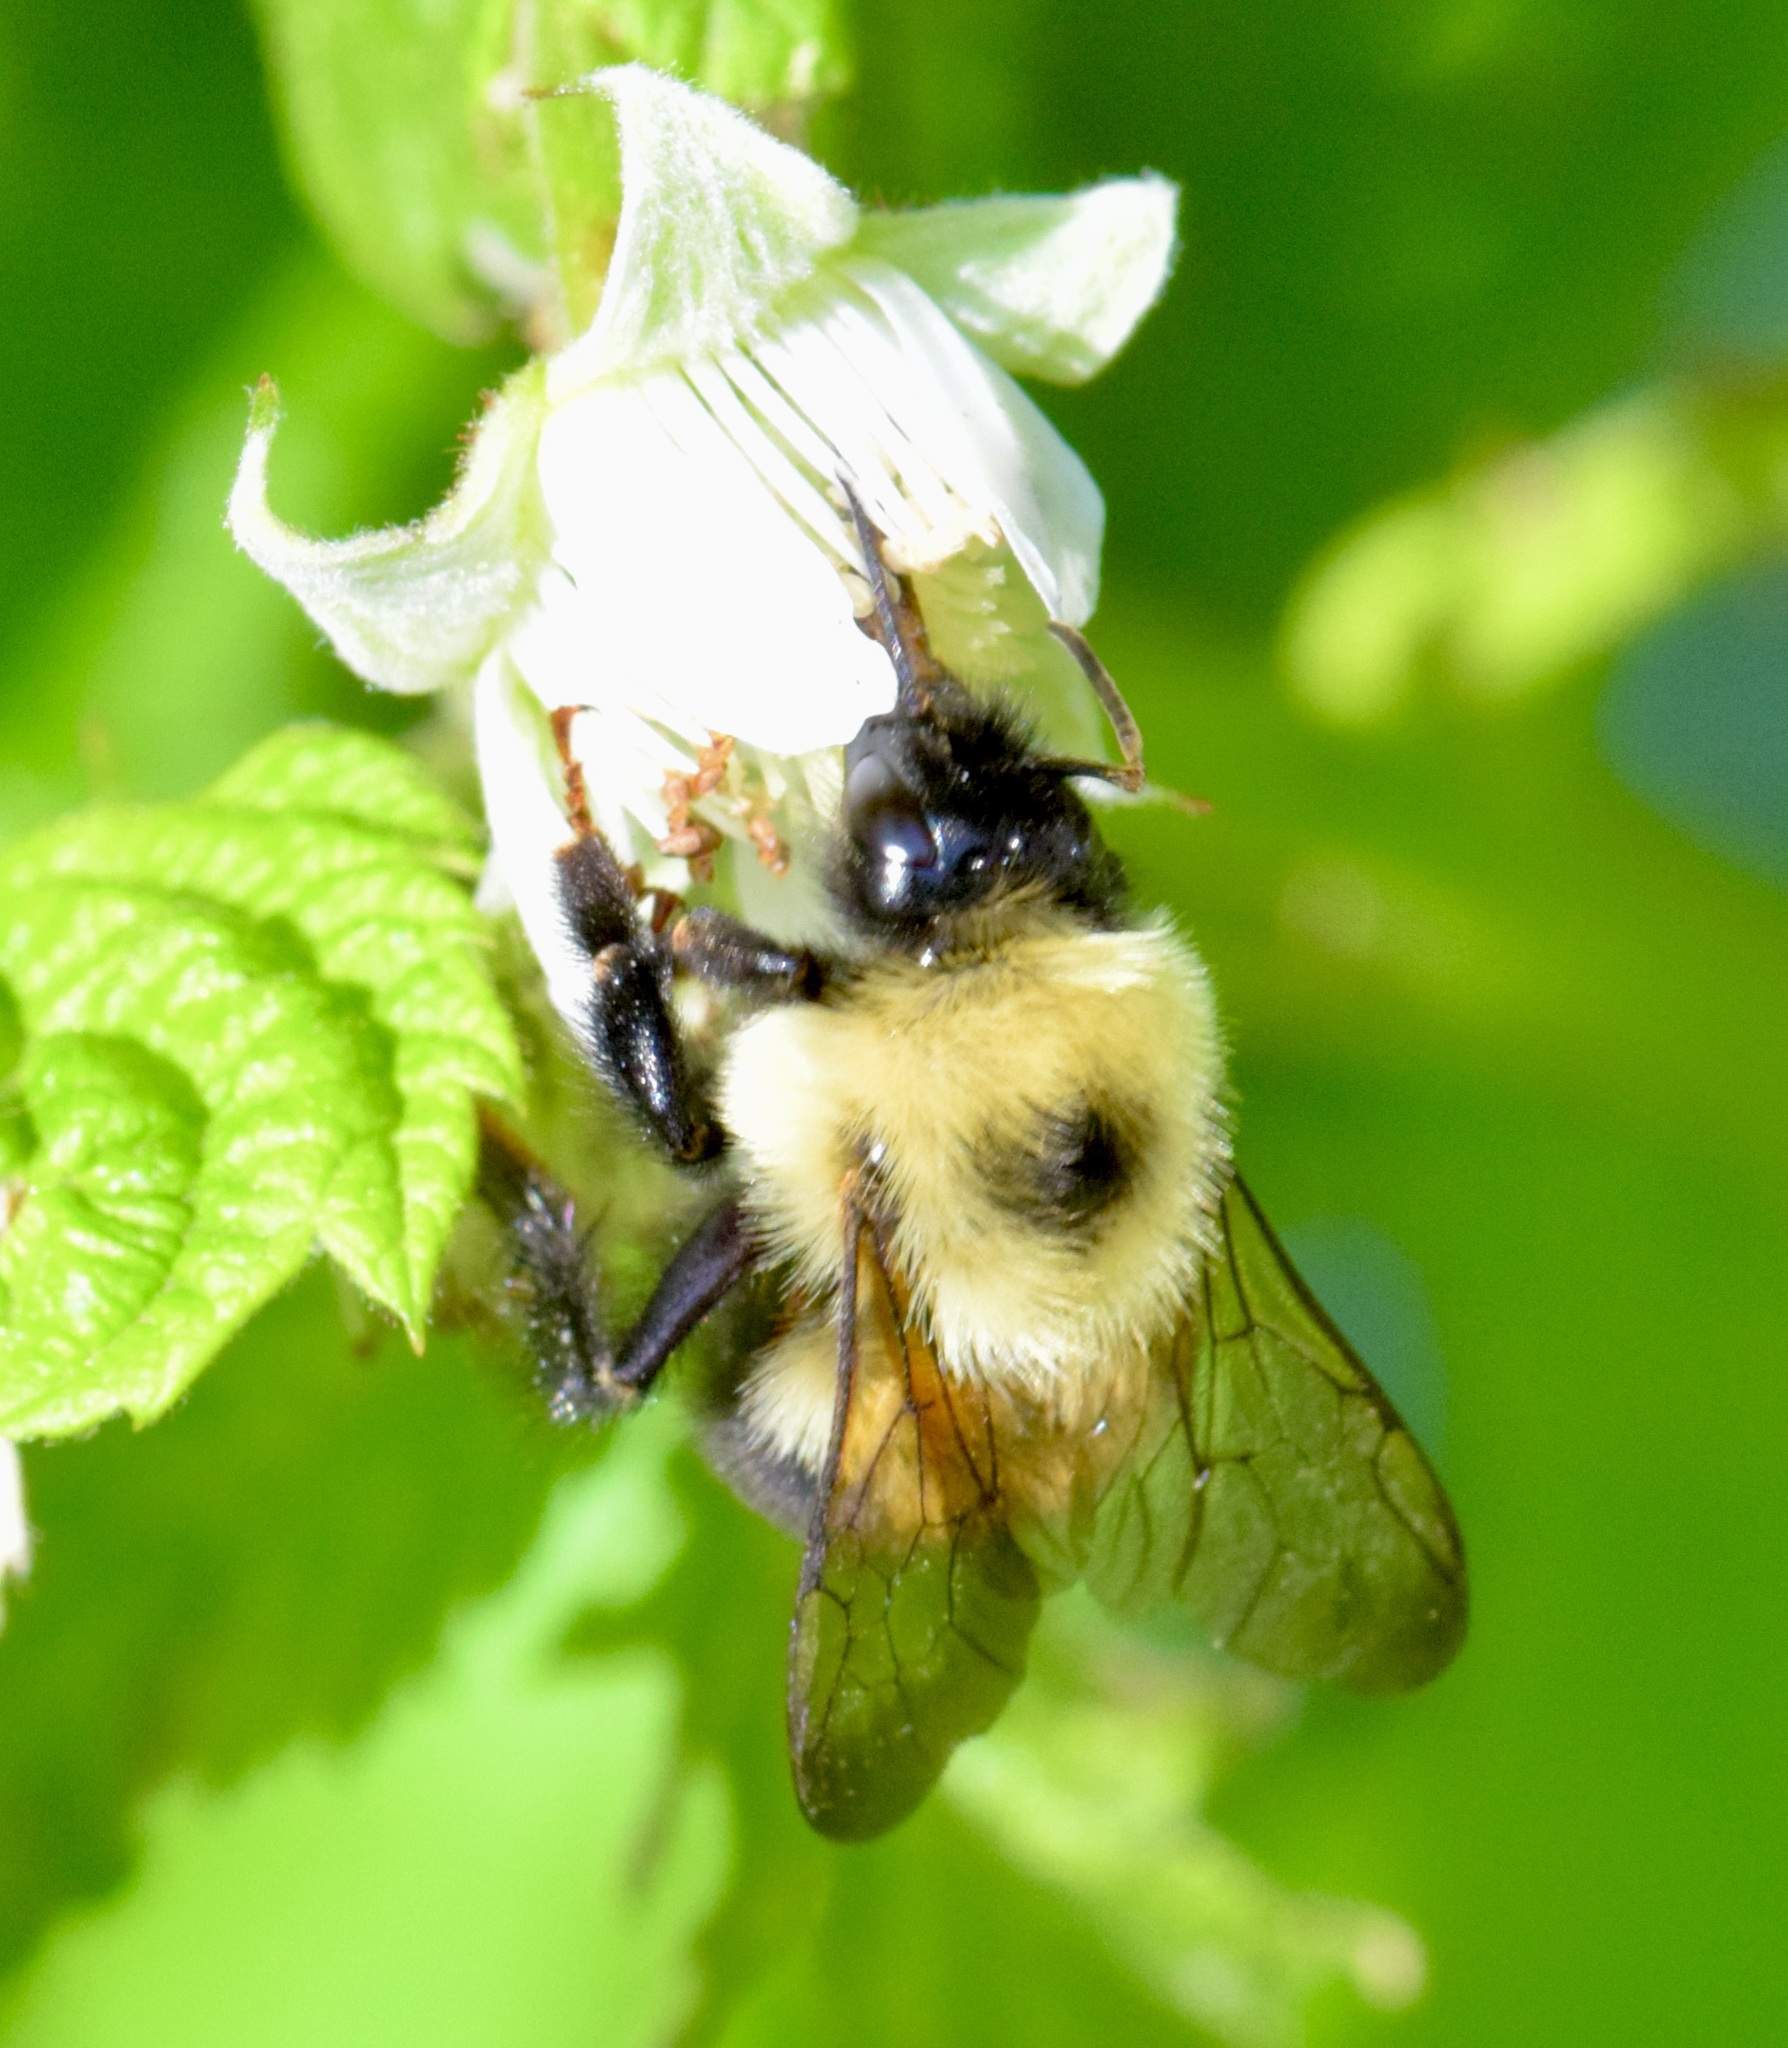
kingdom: Animalia
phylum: Arthropoda
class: Insecta
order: Hymenoptera
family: Apidae
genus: Bombus
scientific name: Bombus bimaculatus
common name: Two-spotted bumble bee
